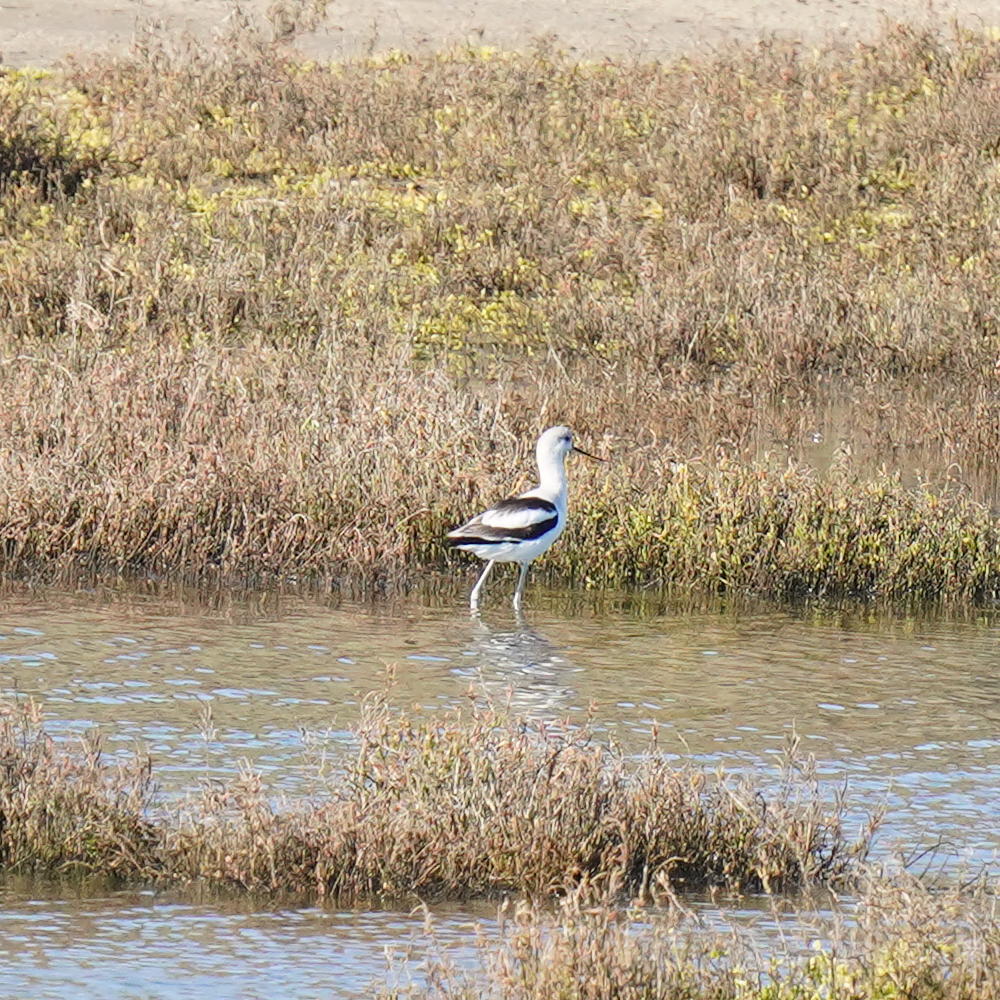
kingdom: Animalia
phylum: Chordata
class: Aves
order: Charadriiformes
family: Recurvirostridae
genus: Recurvirostra
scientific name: Recurvirostra americana
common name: American avocet
